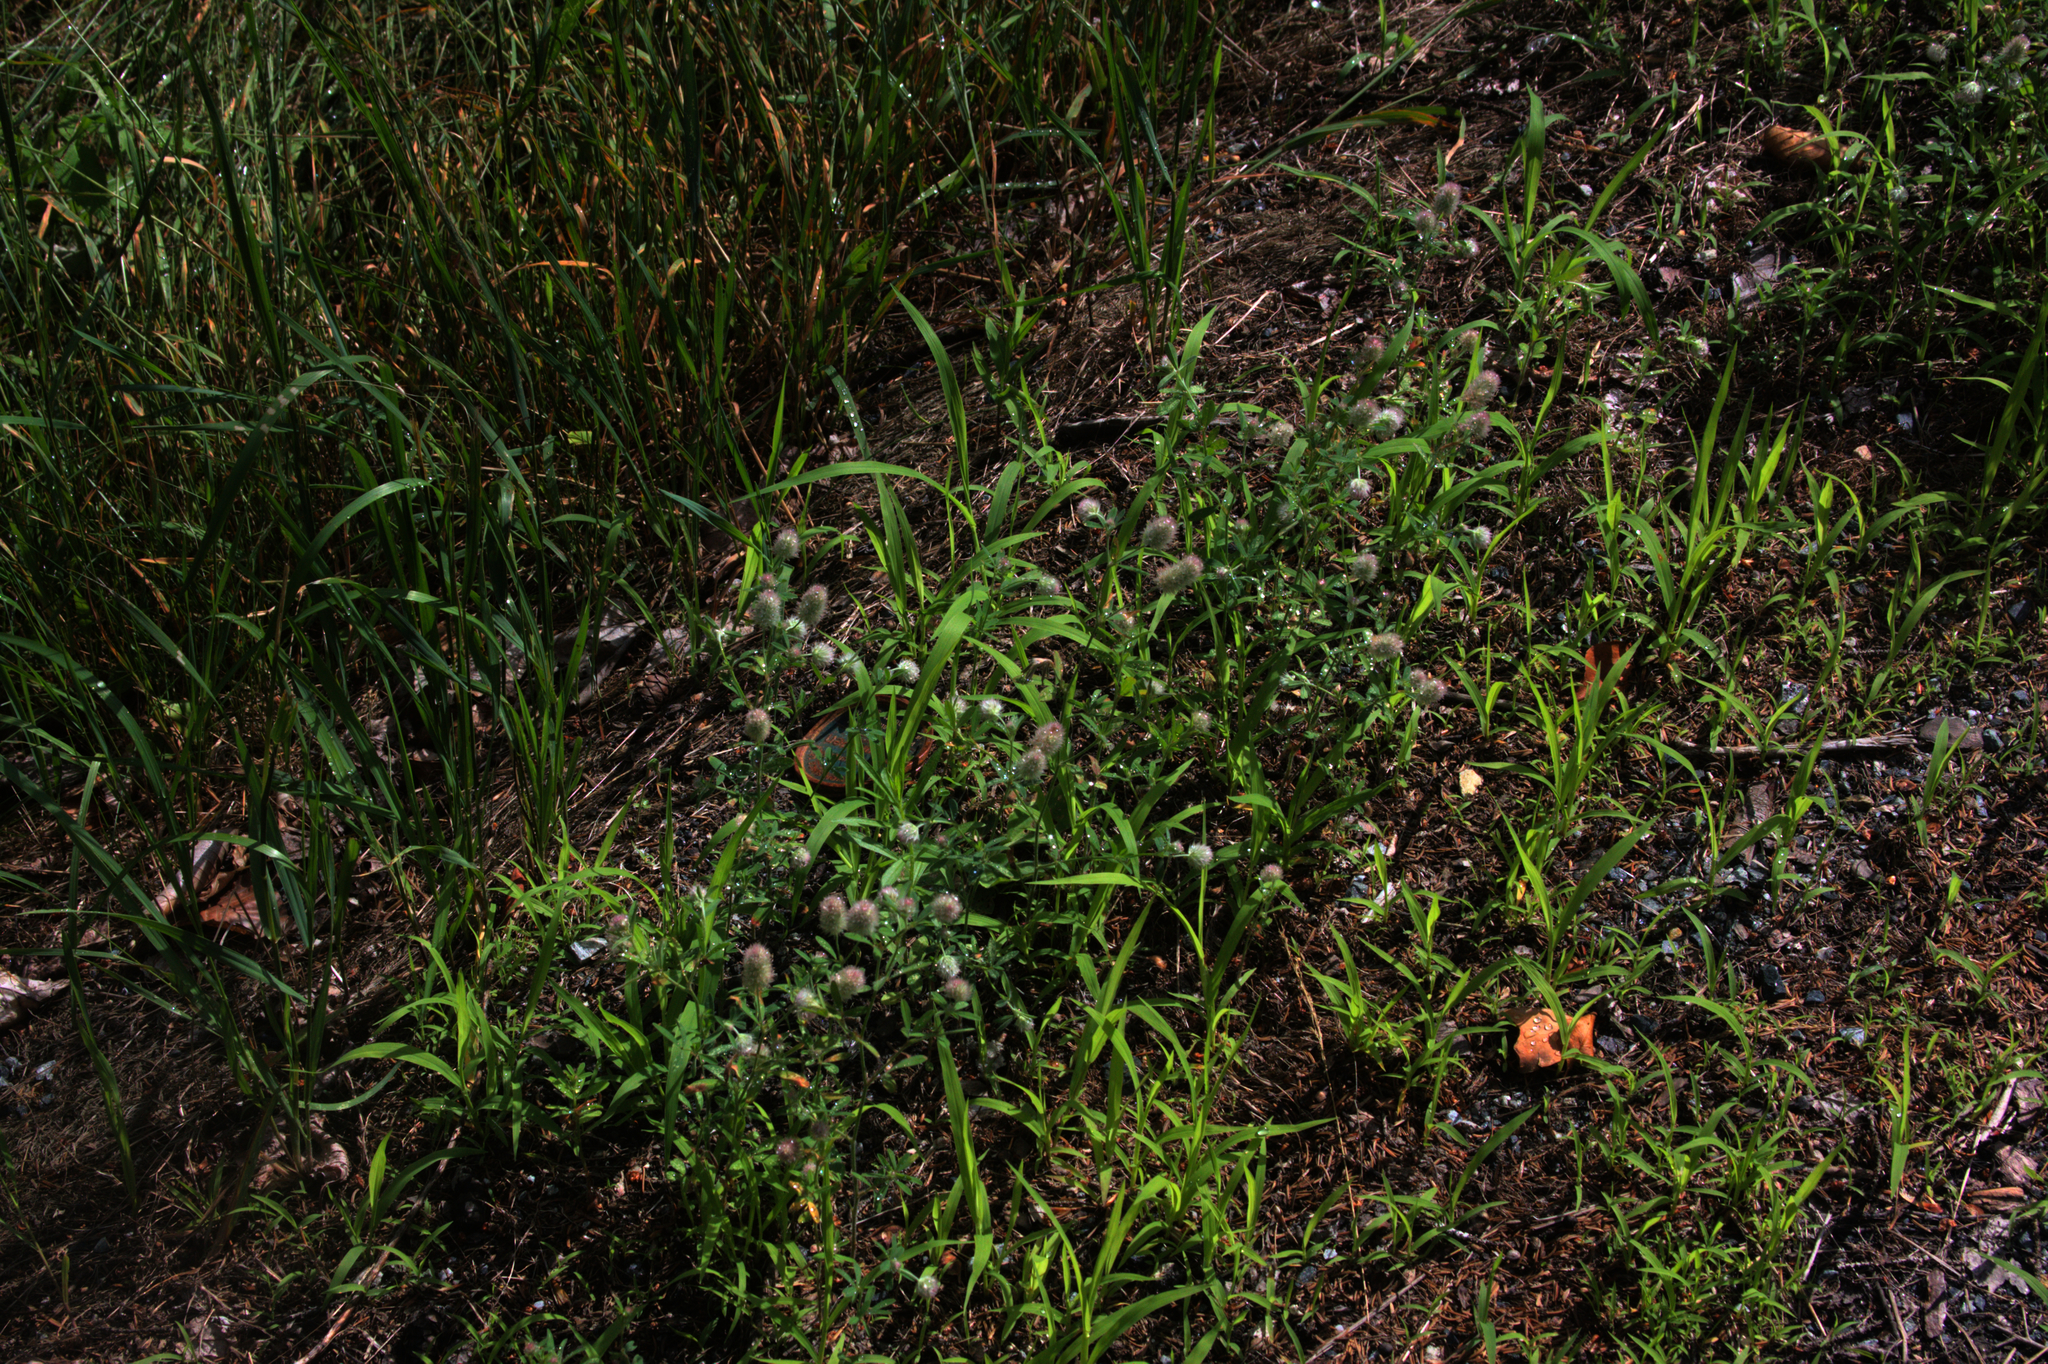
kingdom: Plantae
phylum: Tracheophyta
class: Magnoliopsida
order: Fabales
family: Fabaceae
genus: Trifolium
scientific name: Trifolium arvense
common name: Hare's-foot clover
